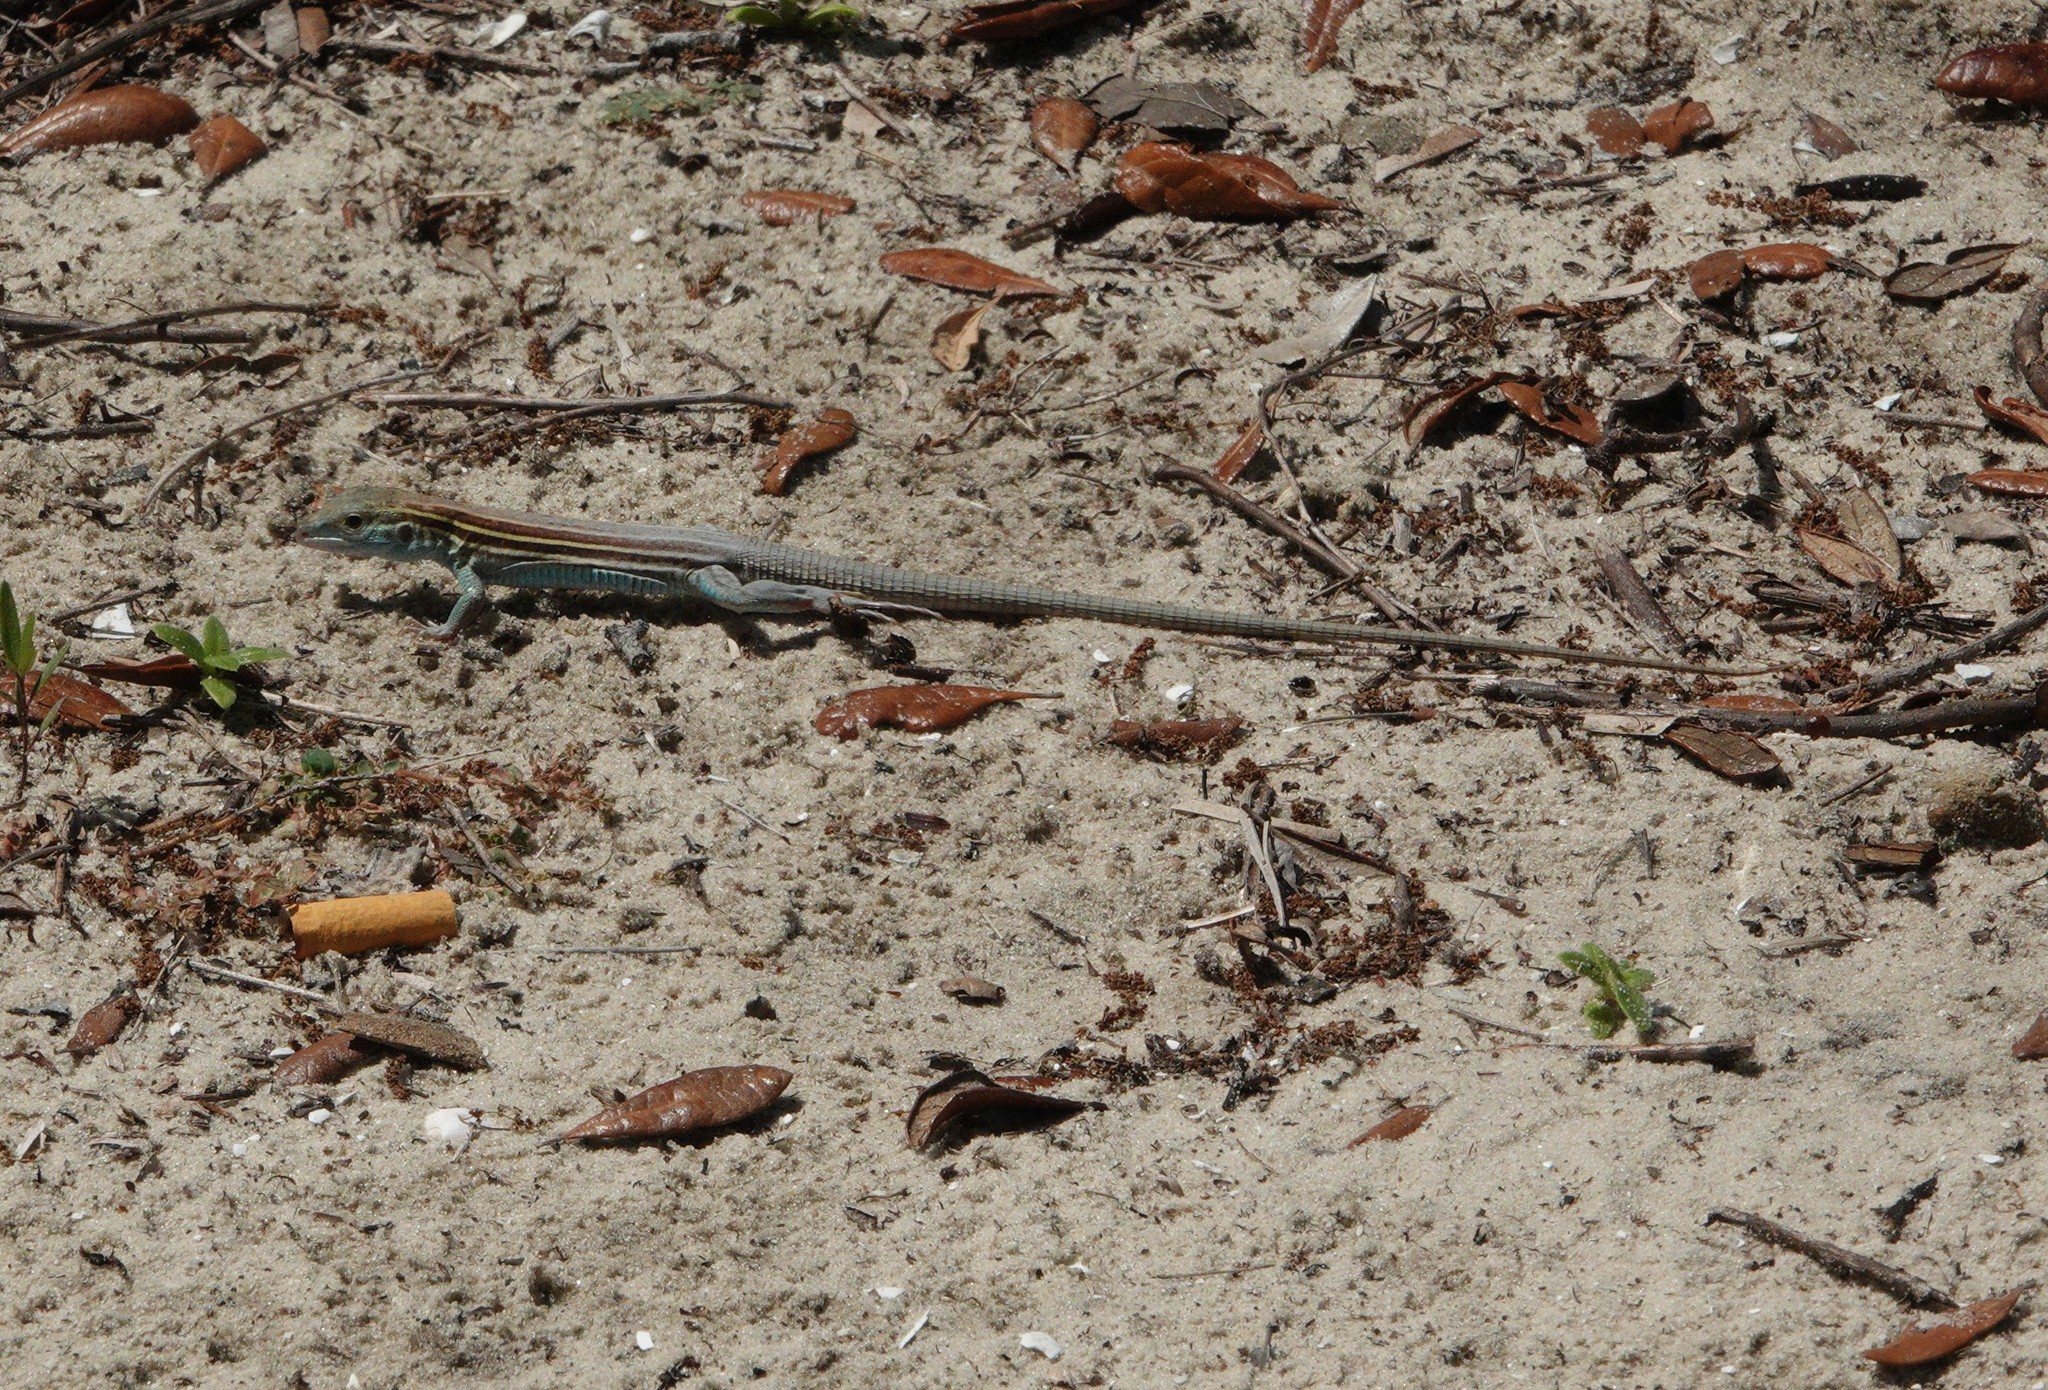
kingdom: Animalia
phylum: Chordata
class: Squamata
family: Teiidae
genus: Aspidoscelis
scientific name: Aspidoscelis sexlineatus
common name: Six-lined racerunner
